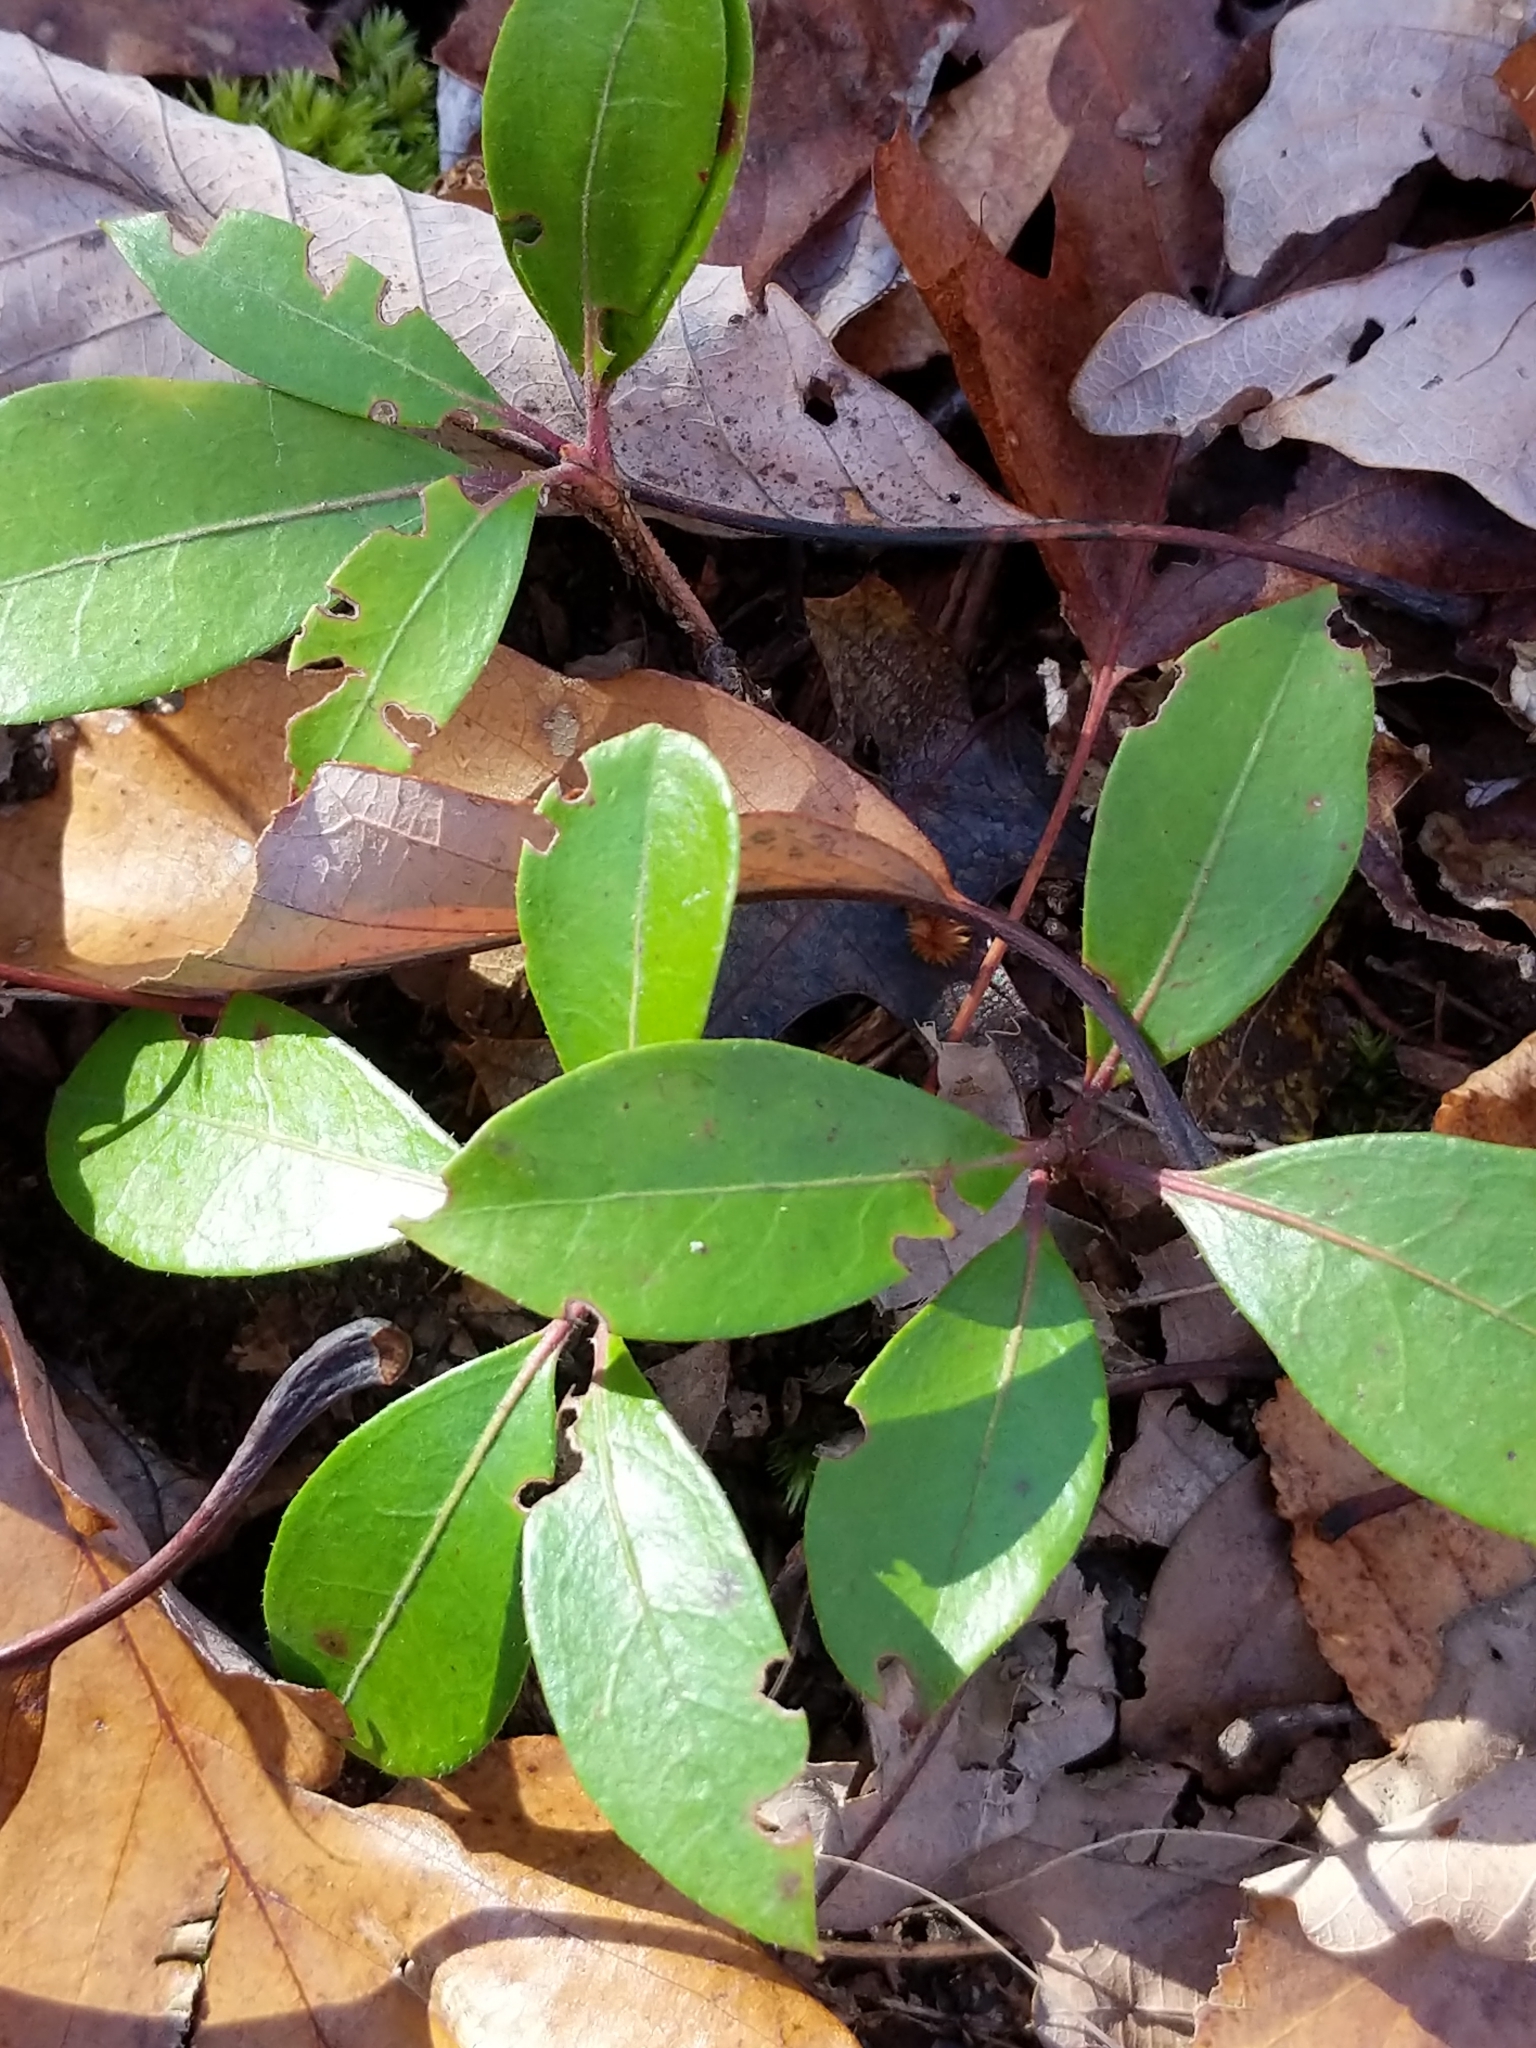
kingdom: Plantae
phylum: Tracheophyta
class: Magnoliopsida
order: Ericales
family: Ericaceae
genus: Gaultheria
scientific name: Gaultheria procumbens
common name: Checkerberry
